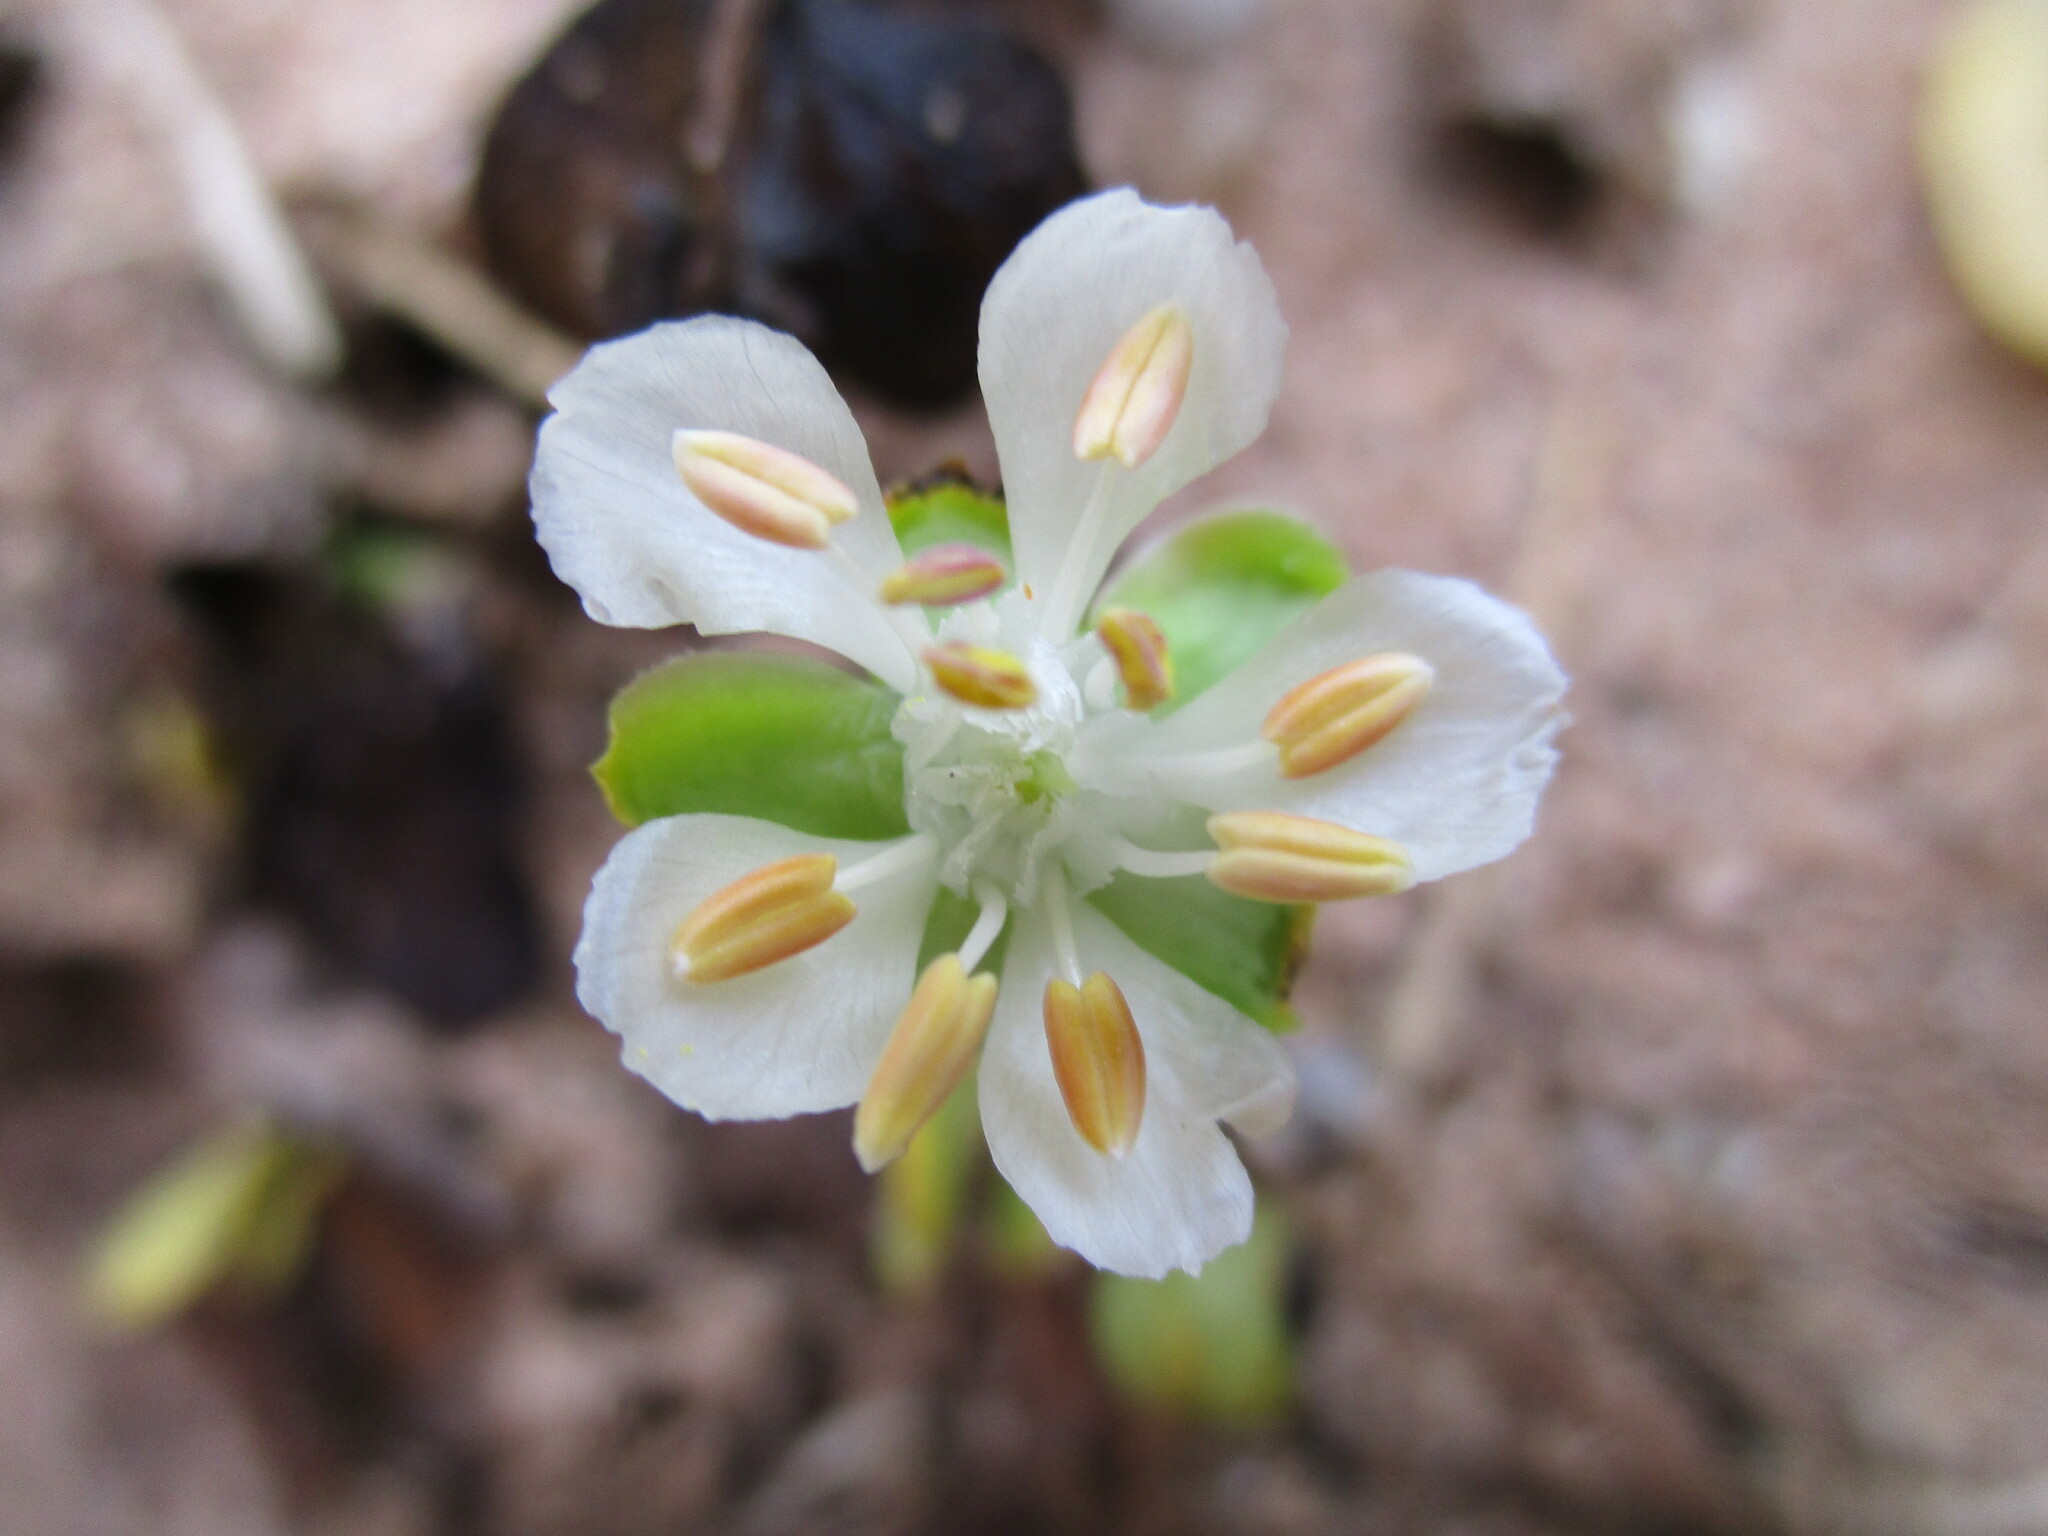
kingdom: Plantae
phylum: Tracheophyta
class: Magnoliopsida
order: Zygophyllales
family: Zygophyllaceae
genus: Tetraena
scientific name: Tetraena stapfii
